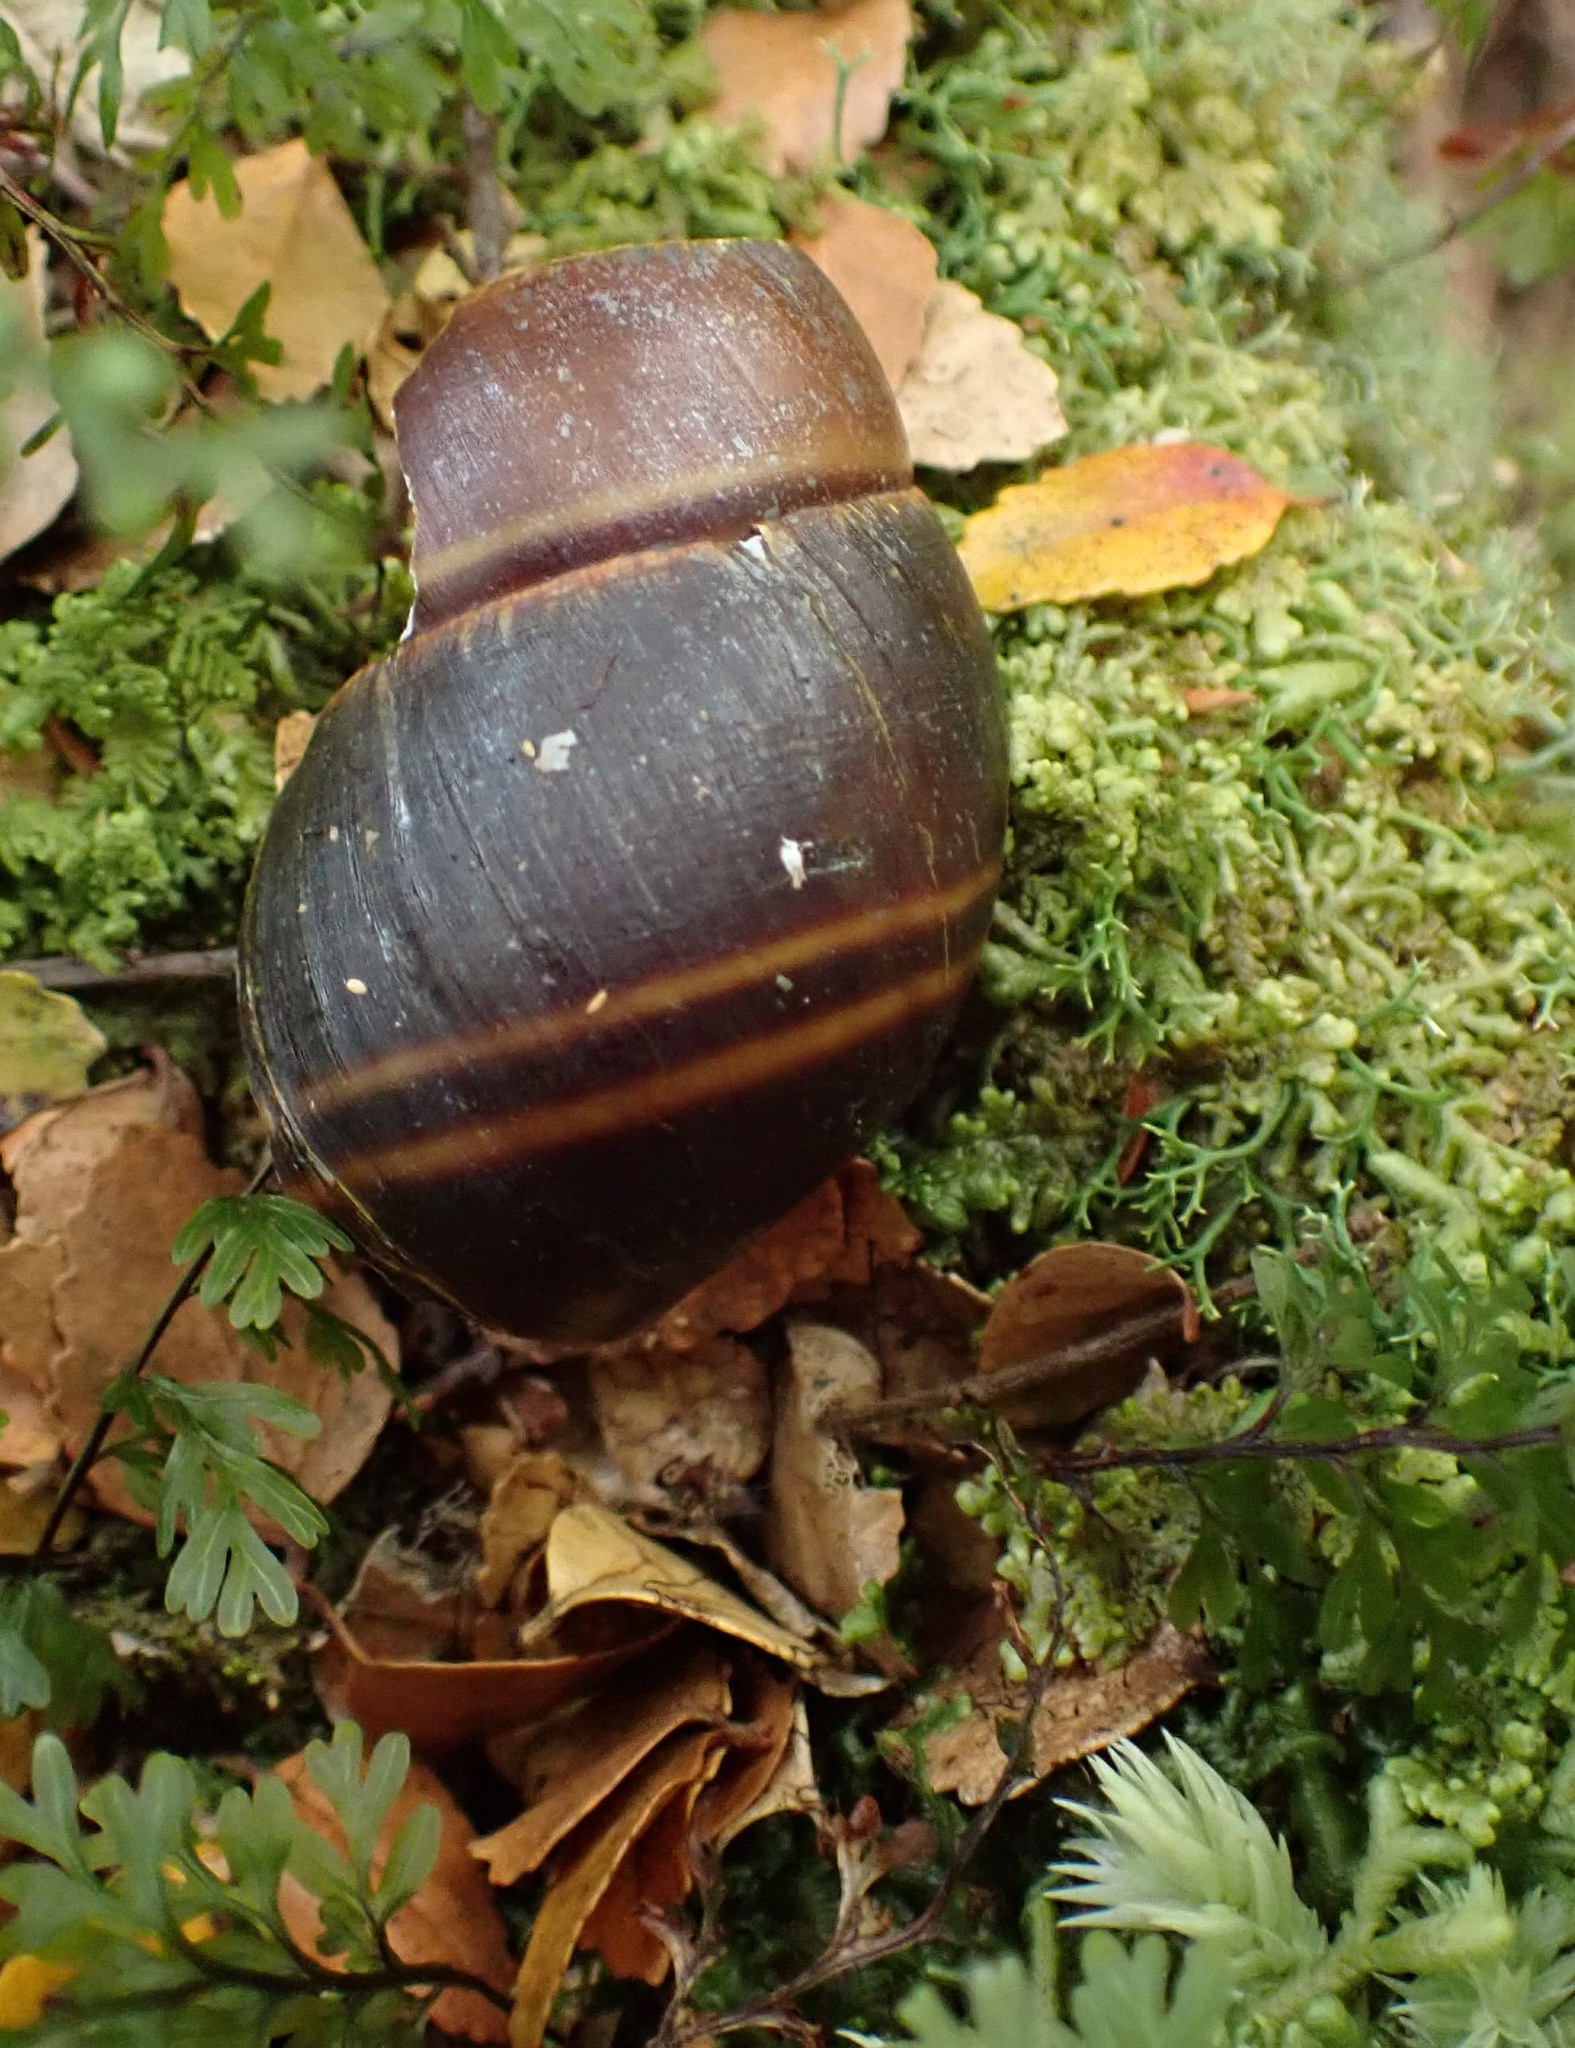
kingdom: Animalia
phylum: Mollusca
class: Gastropoda
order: Stylommatophora
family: Caryodidae
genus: Caryodes
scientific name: Caryodes dufresnii
